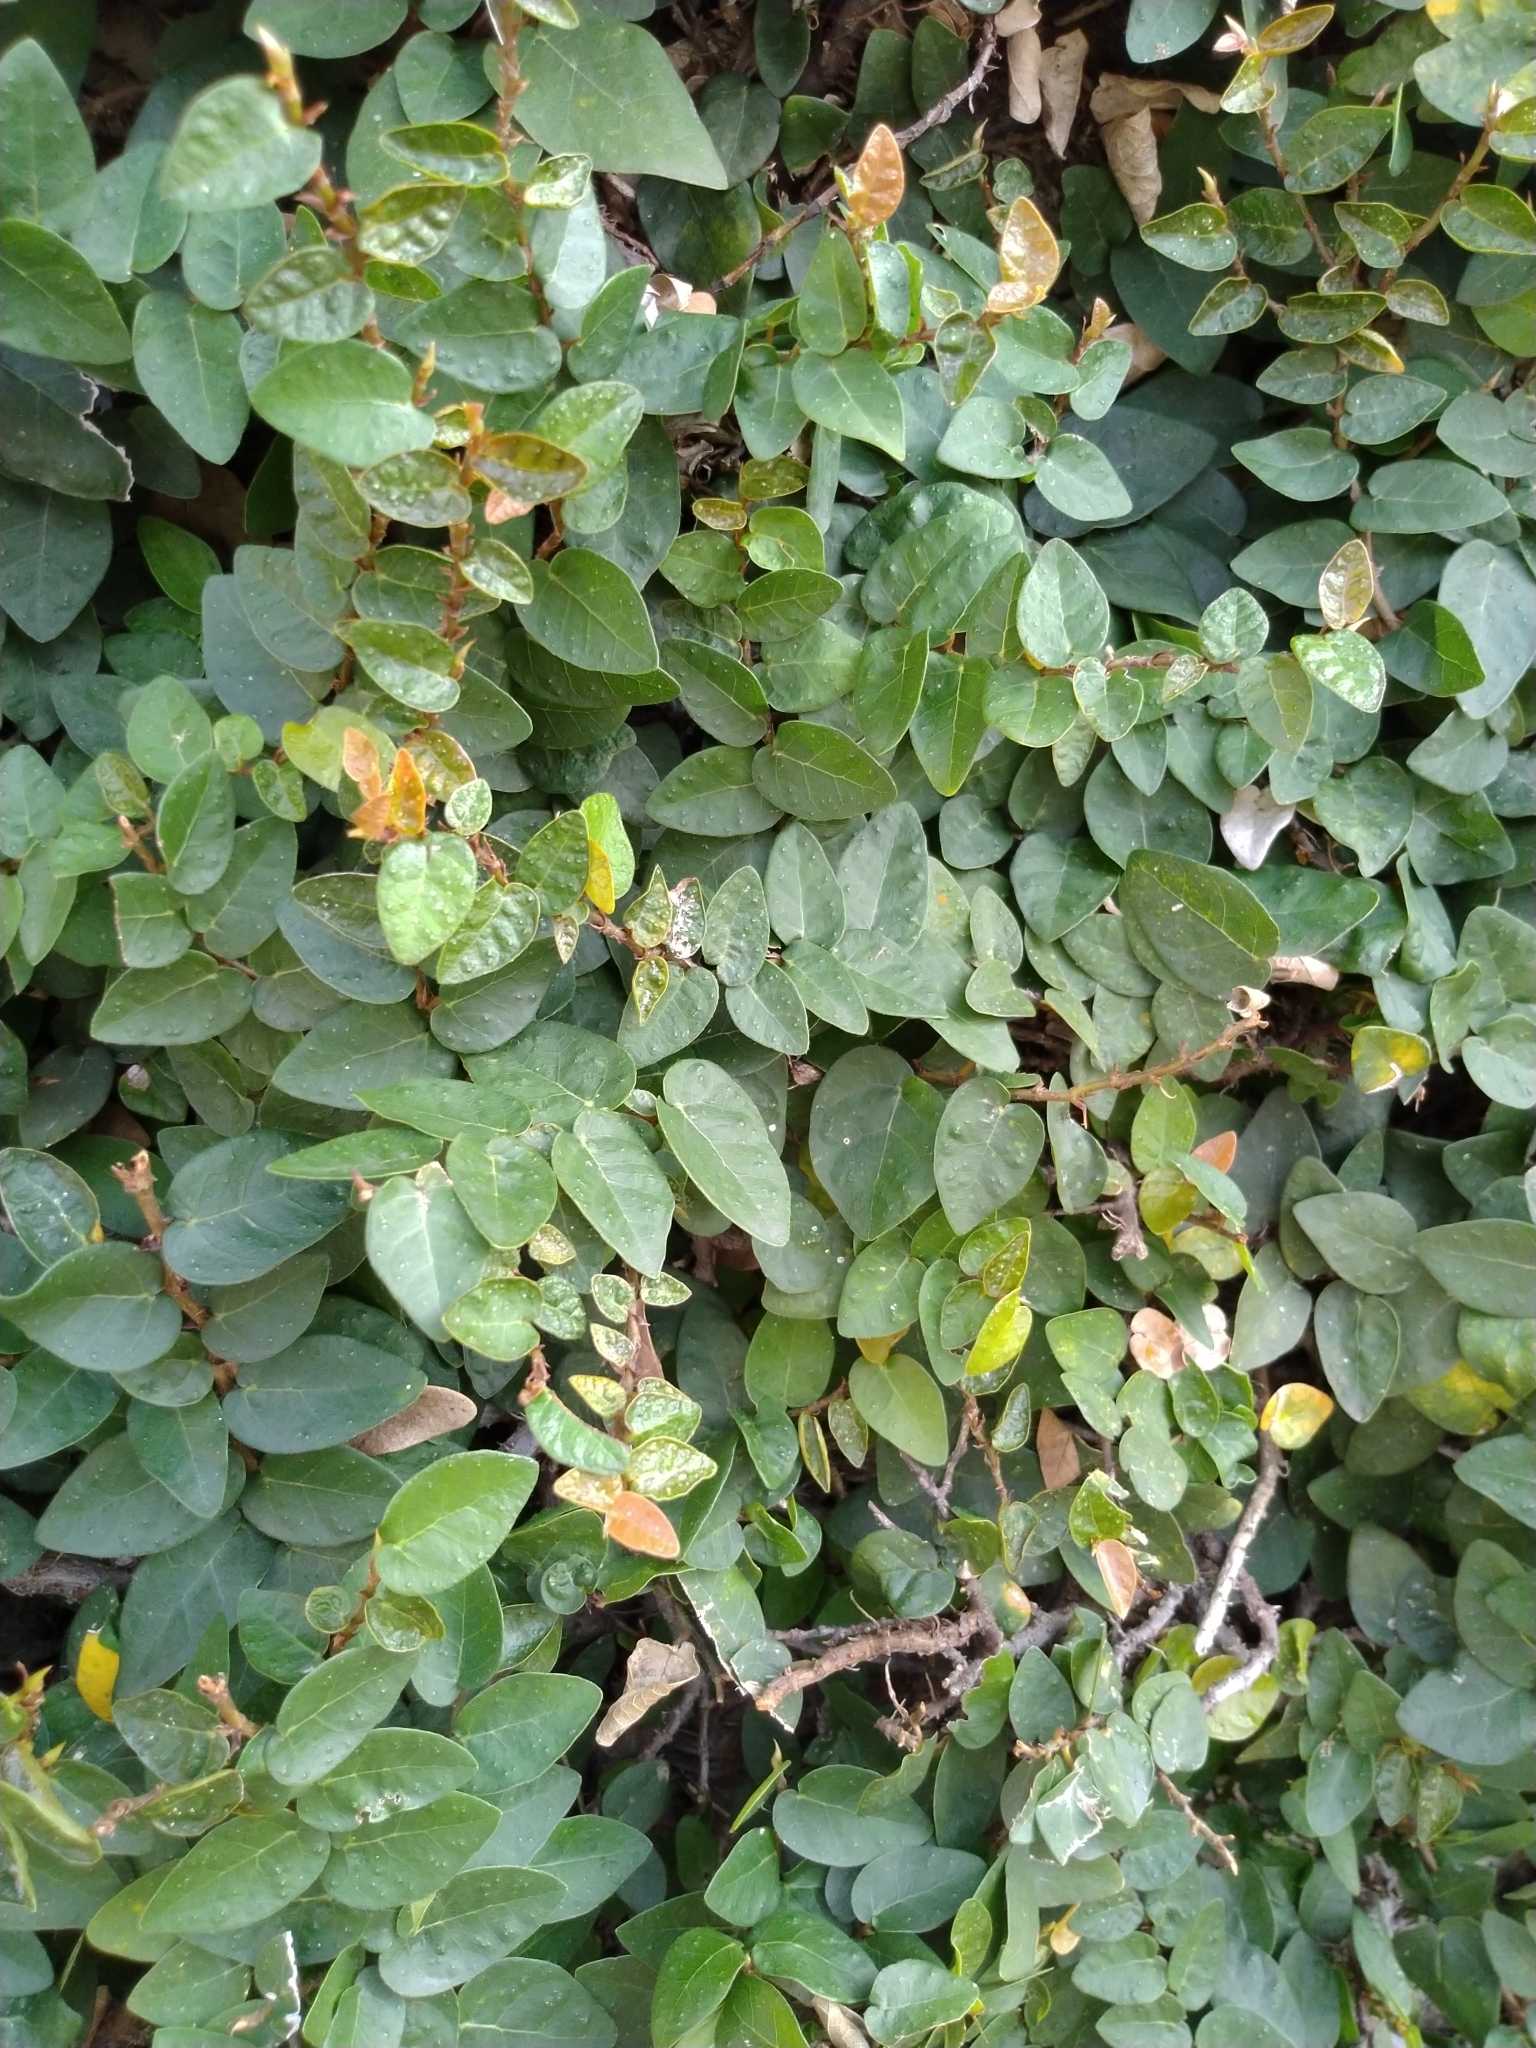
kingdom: Plantae
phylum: Tracheophyta
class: Magnoliopsida
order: Rosales
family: Moraceae
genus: Ficus
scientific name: Ficus pumila
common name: Climbingfig
